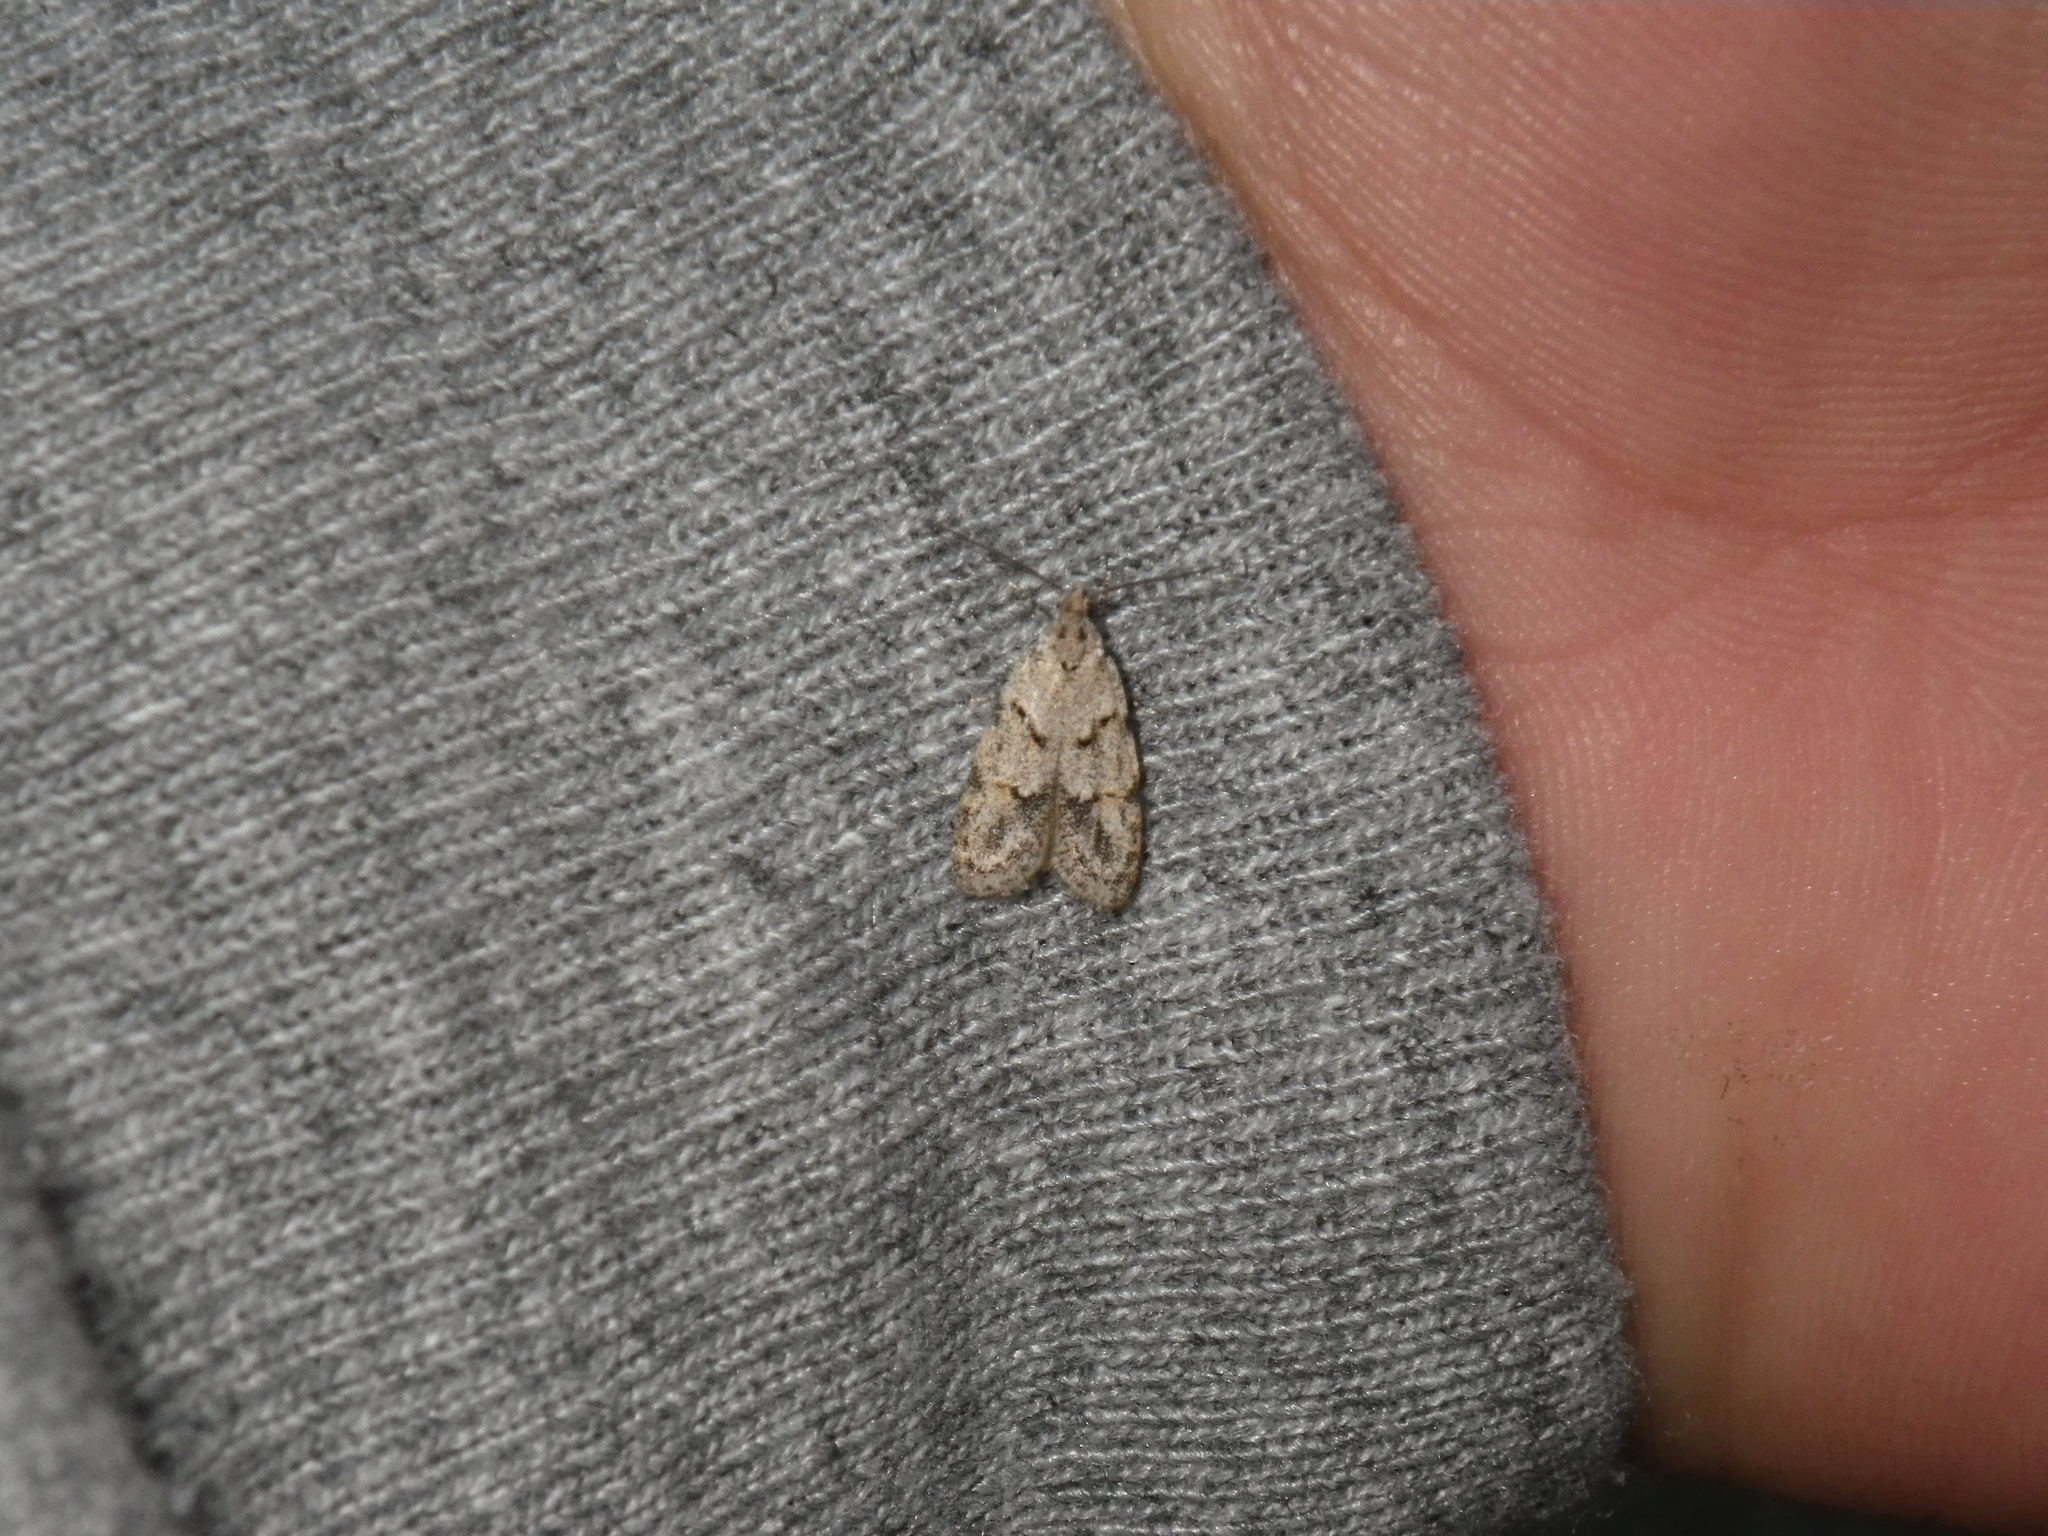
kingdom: Animalia
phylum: Arthropoda
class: Insecta
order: Lepidoptera
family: Autostichidae
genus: Symmoca
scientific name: Symmoca signatella
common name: Dockland obscure
